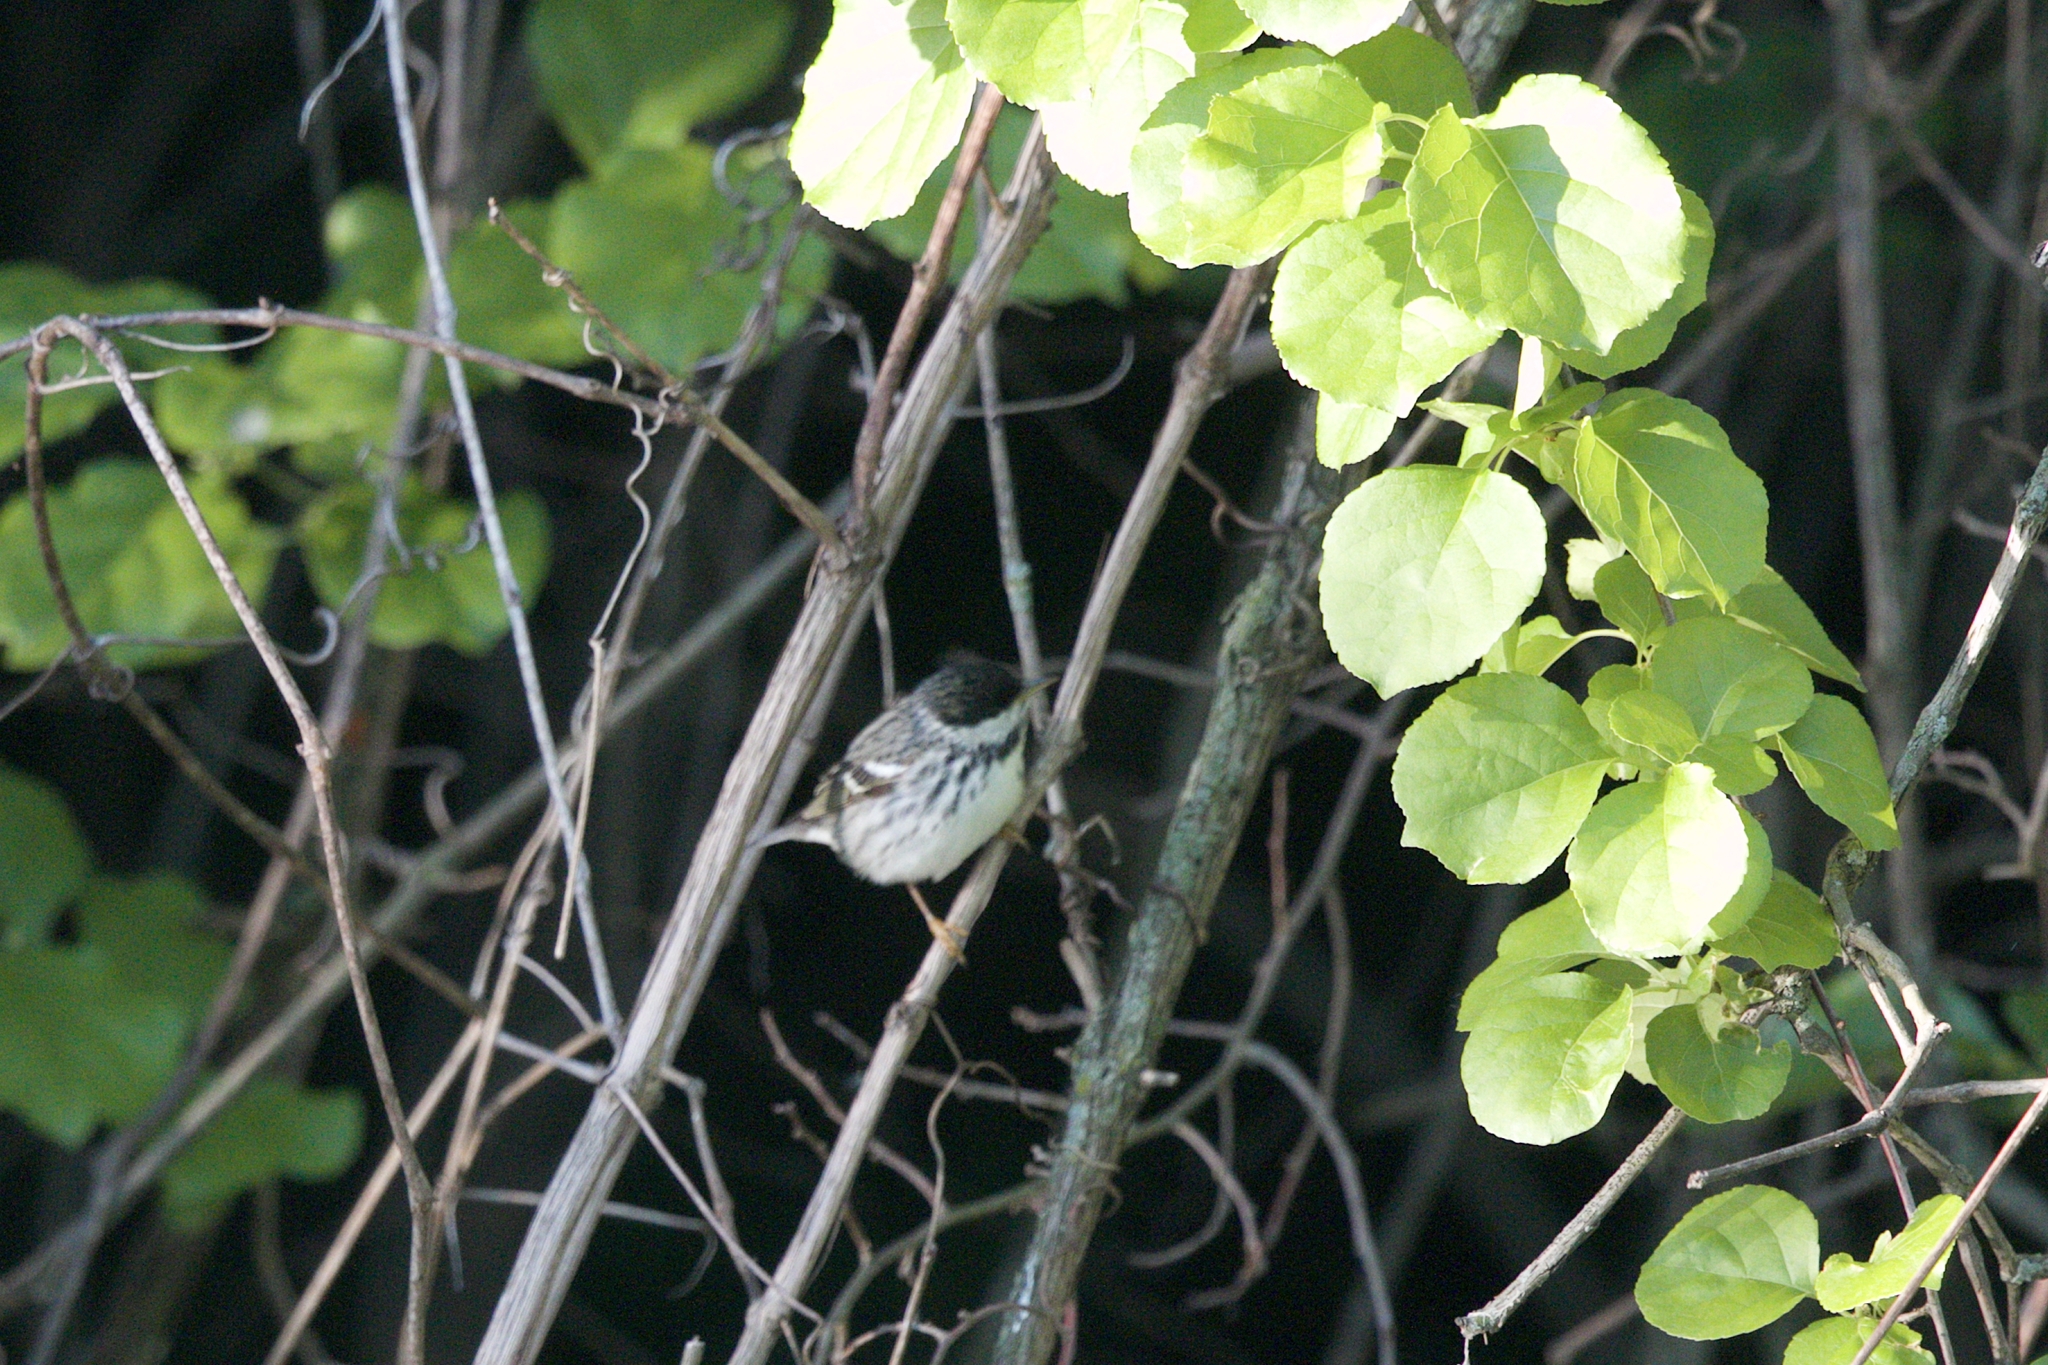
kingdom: Animalia
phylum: Chordata
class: Aves
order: Passeriformes
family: Parulidae
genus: Setophaga
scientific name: Setophaga striata
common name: Blackpoll warbler
